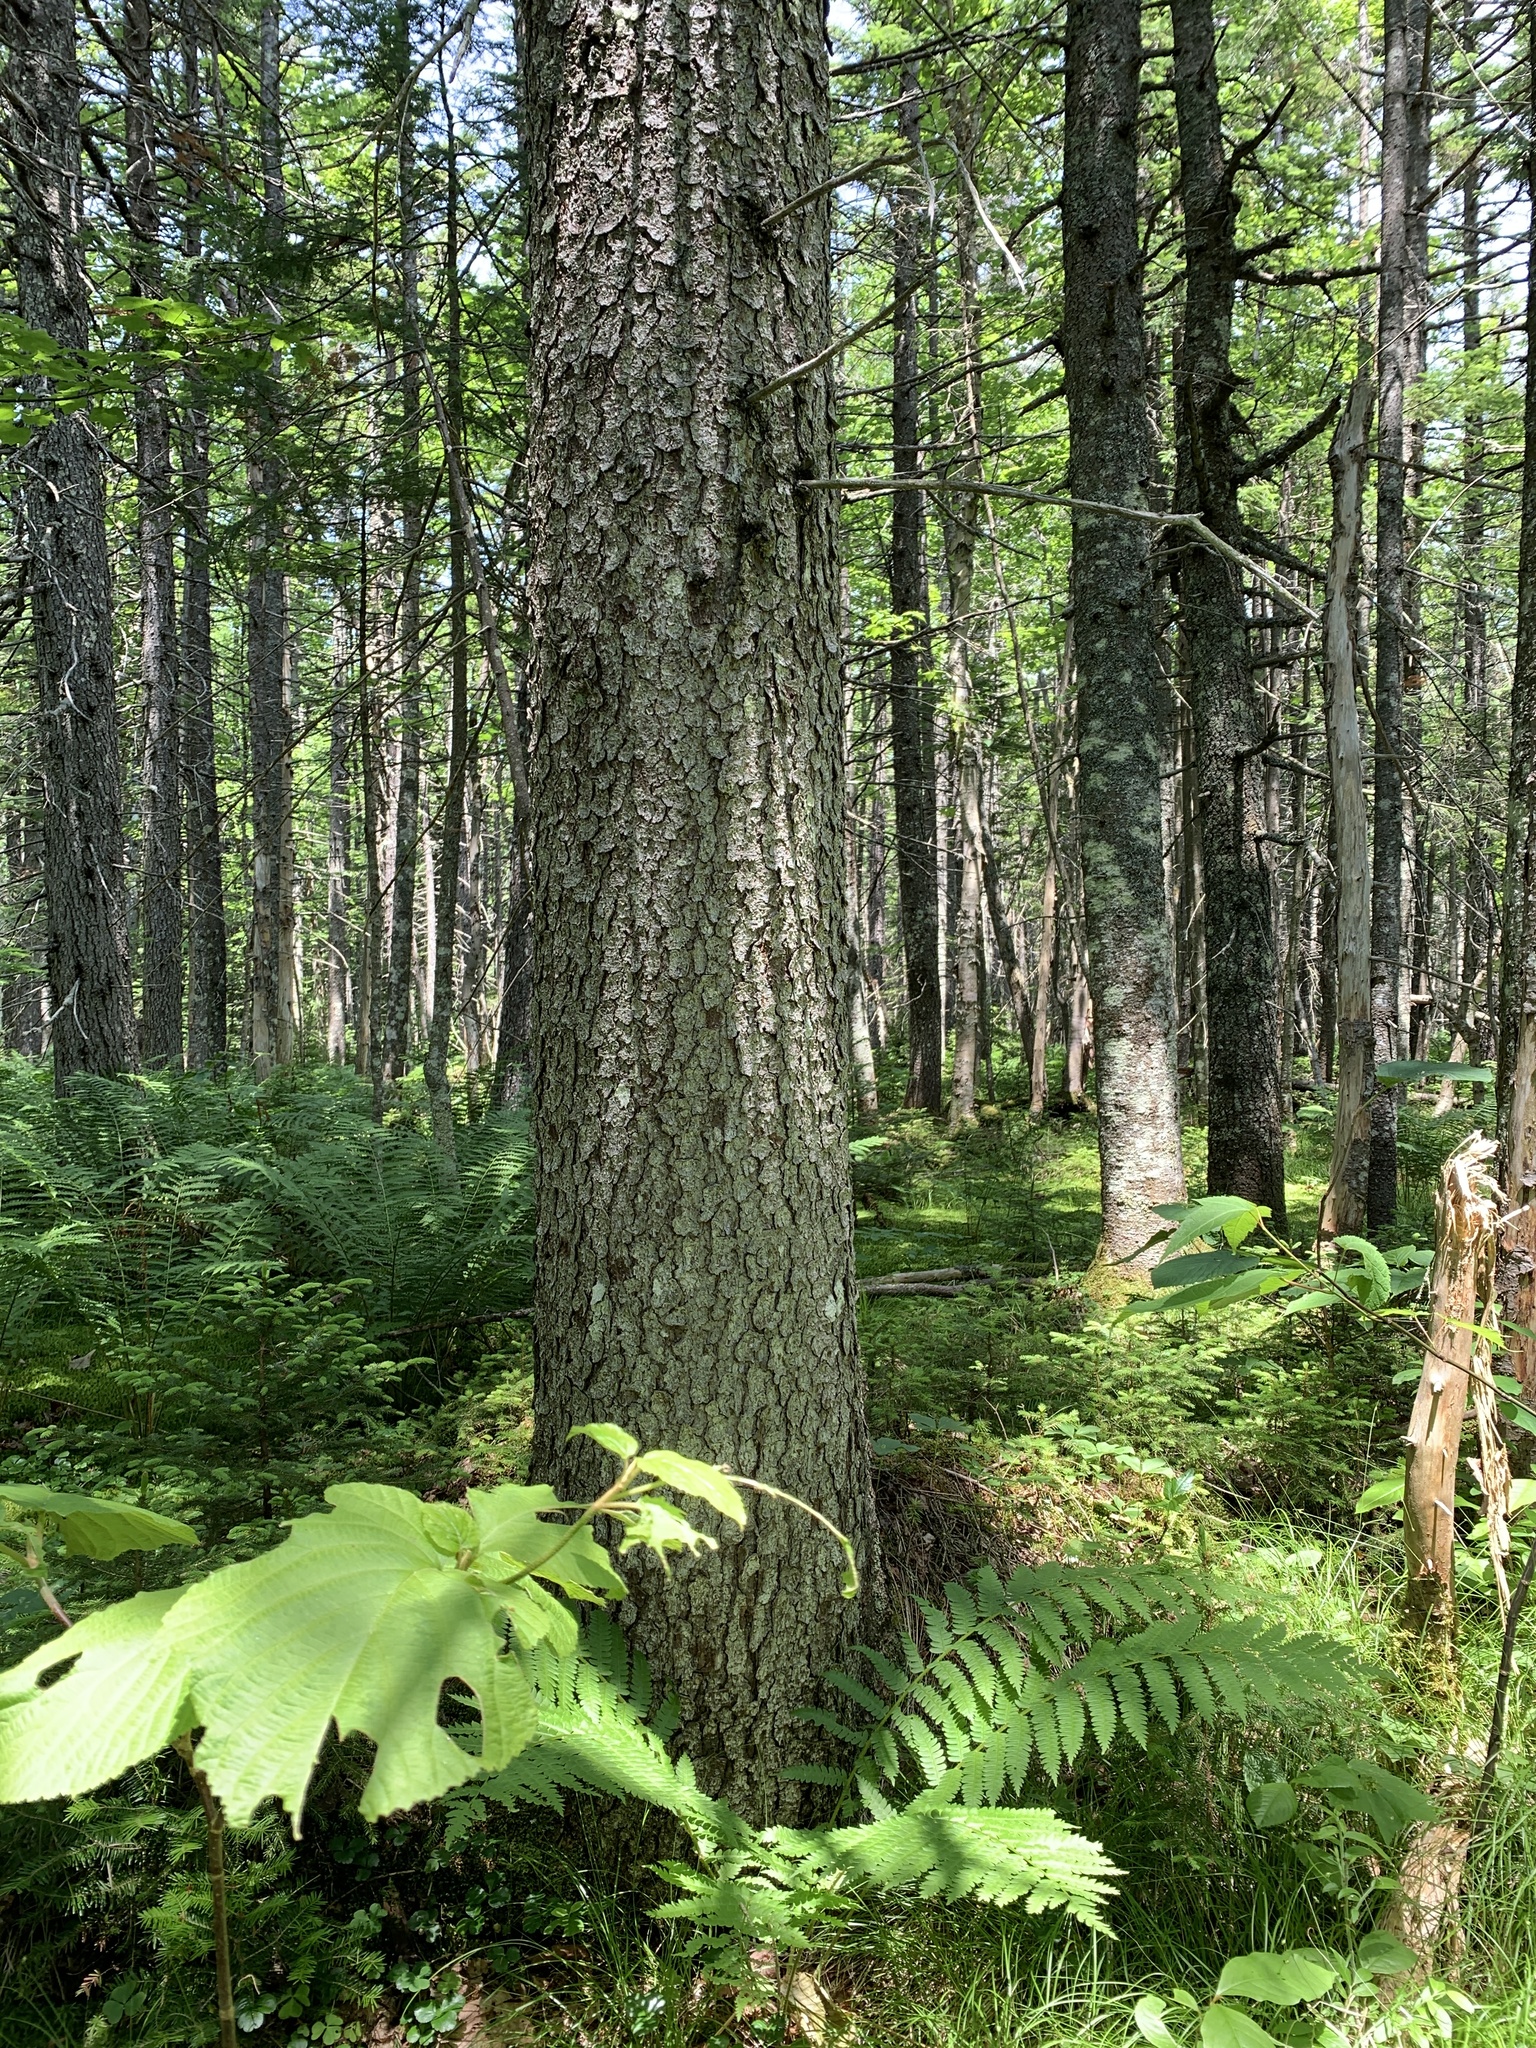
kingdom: Plantae
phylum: Tracheophyta
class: Pinopsida
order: Pinales
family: Pinaceae
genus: Picea
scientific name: Picea rubens
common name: Red spruce
